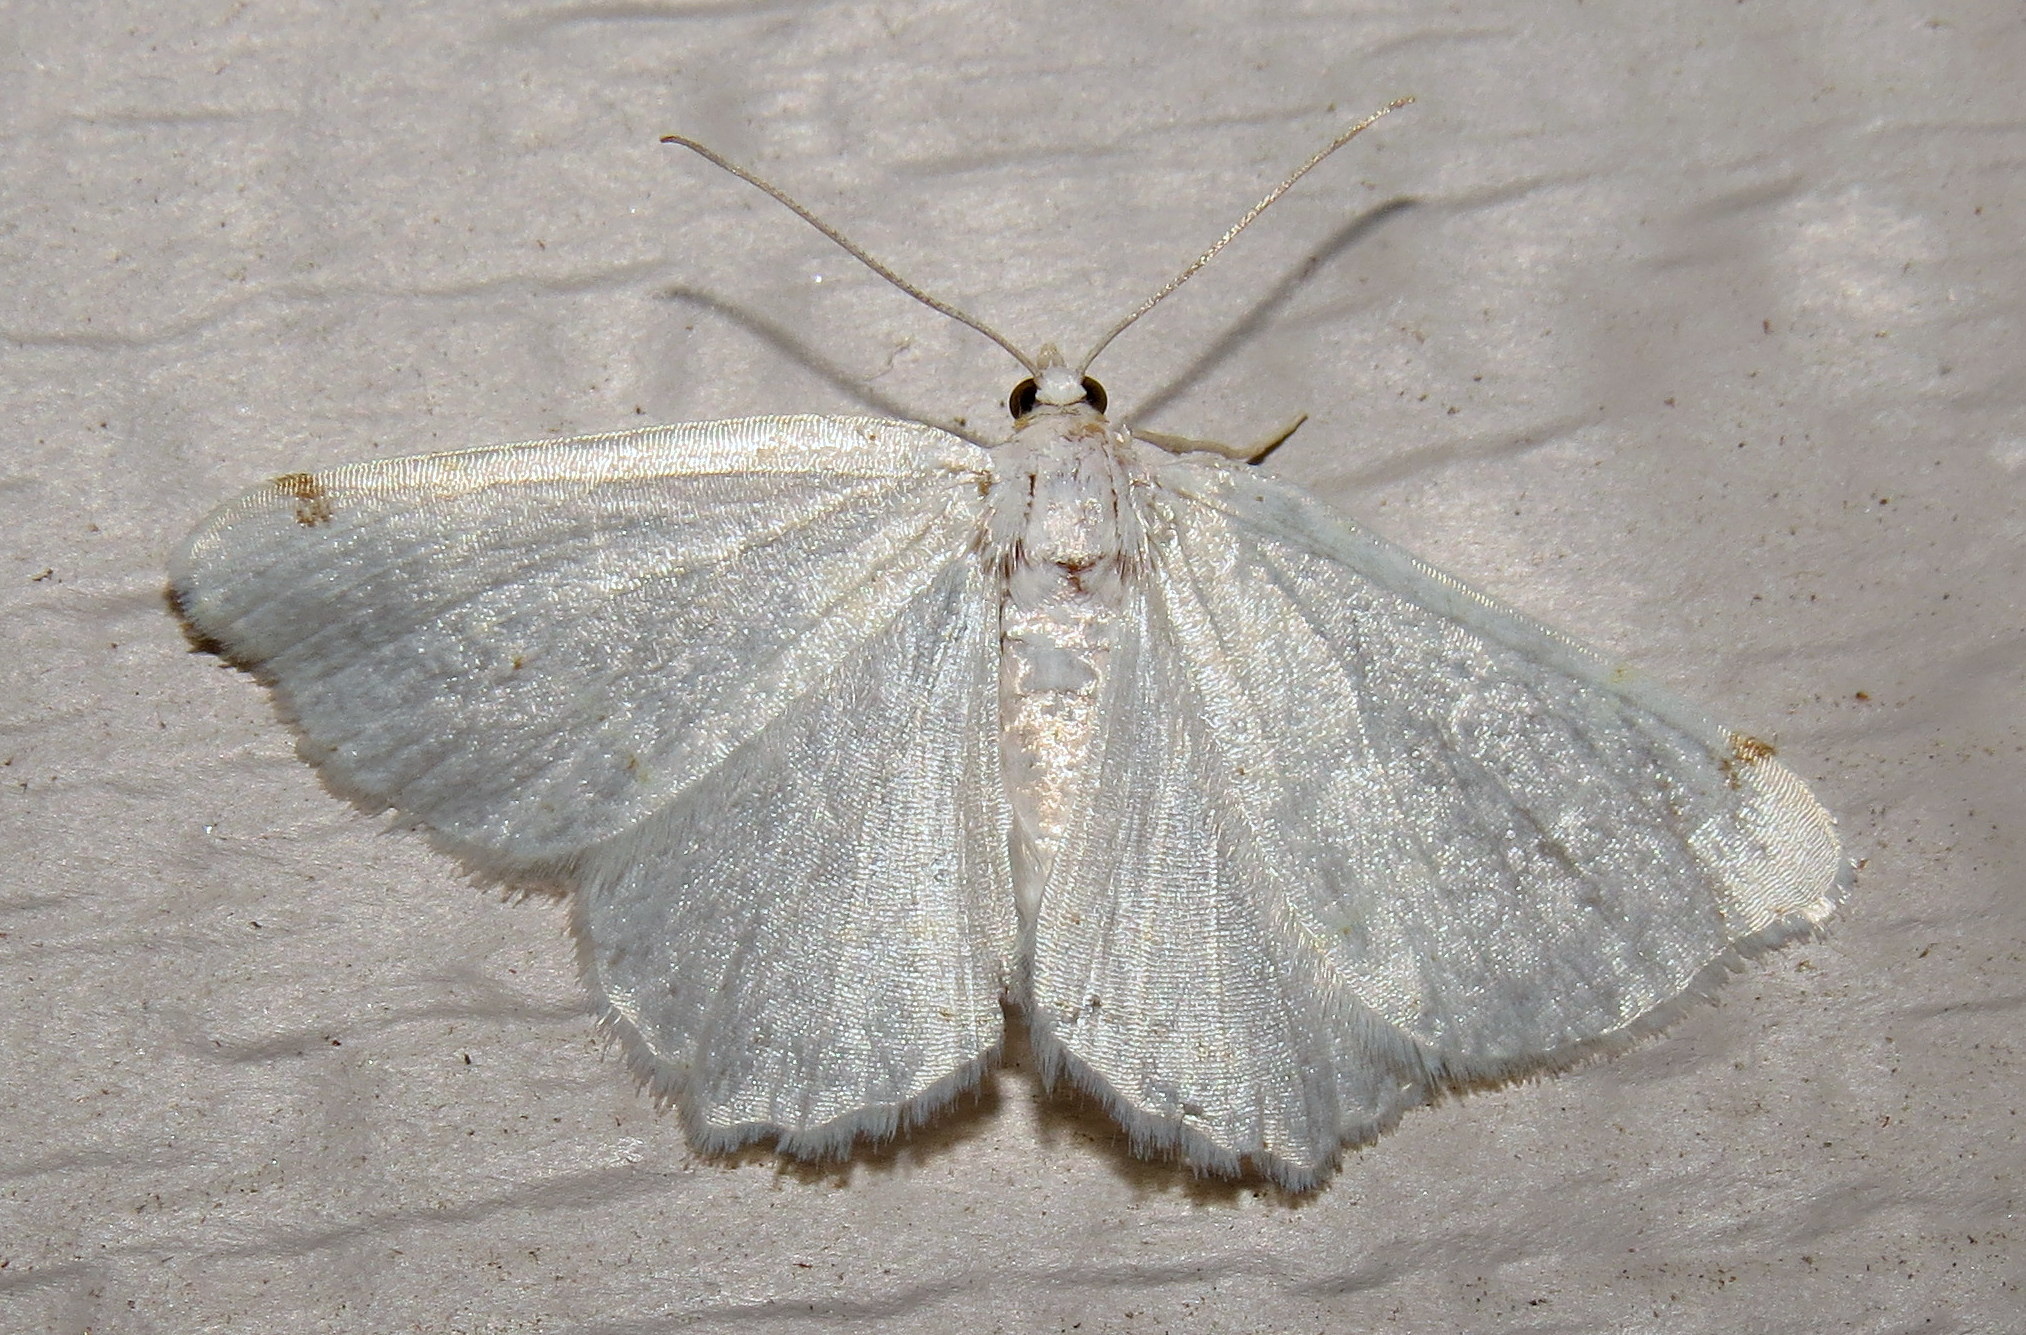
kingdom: Animalia
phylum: Arthropoda
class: Insecta
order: Lepidoptera
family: Geometridae
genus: Macaria
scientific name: Macaria pustularia
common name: Lesser maple spanworm moth
